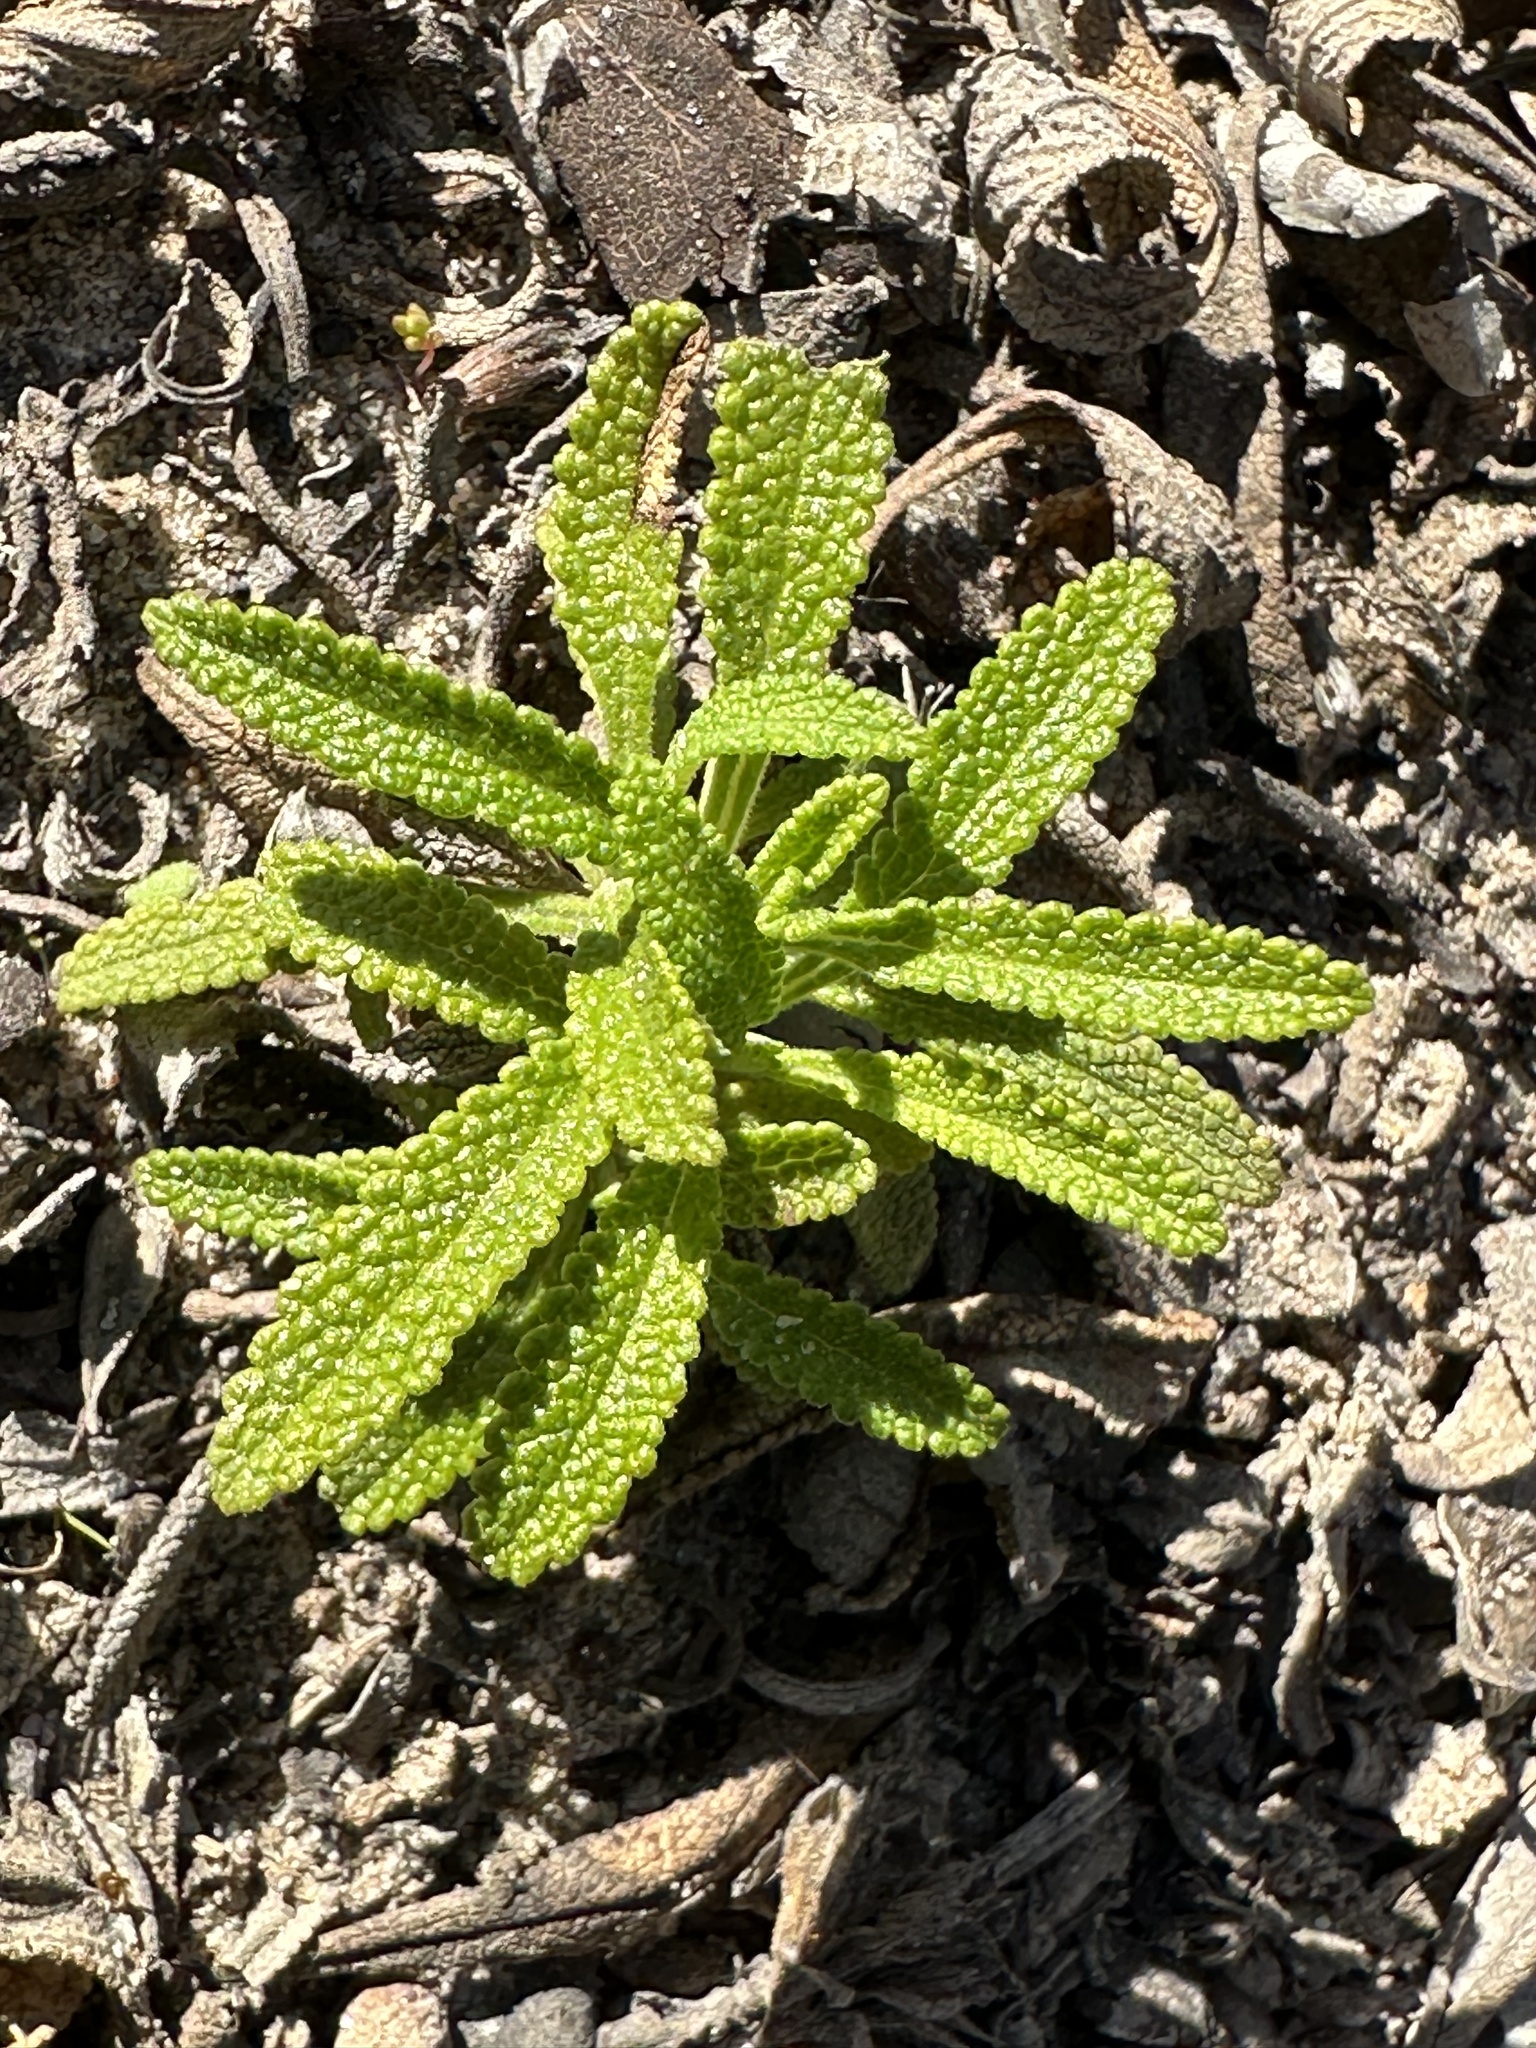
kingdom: Plantae
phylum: Tracheophyta
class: Magnoliopsida
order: Lamiales
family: Lamiaceae
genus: Salvia
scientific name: Salvia mellifera
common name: Black sage
